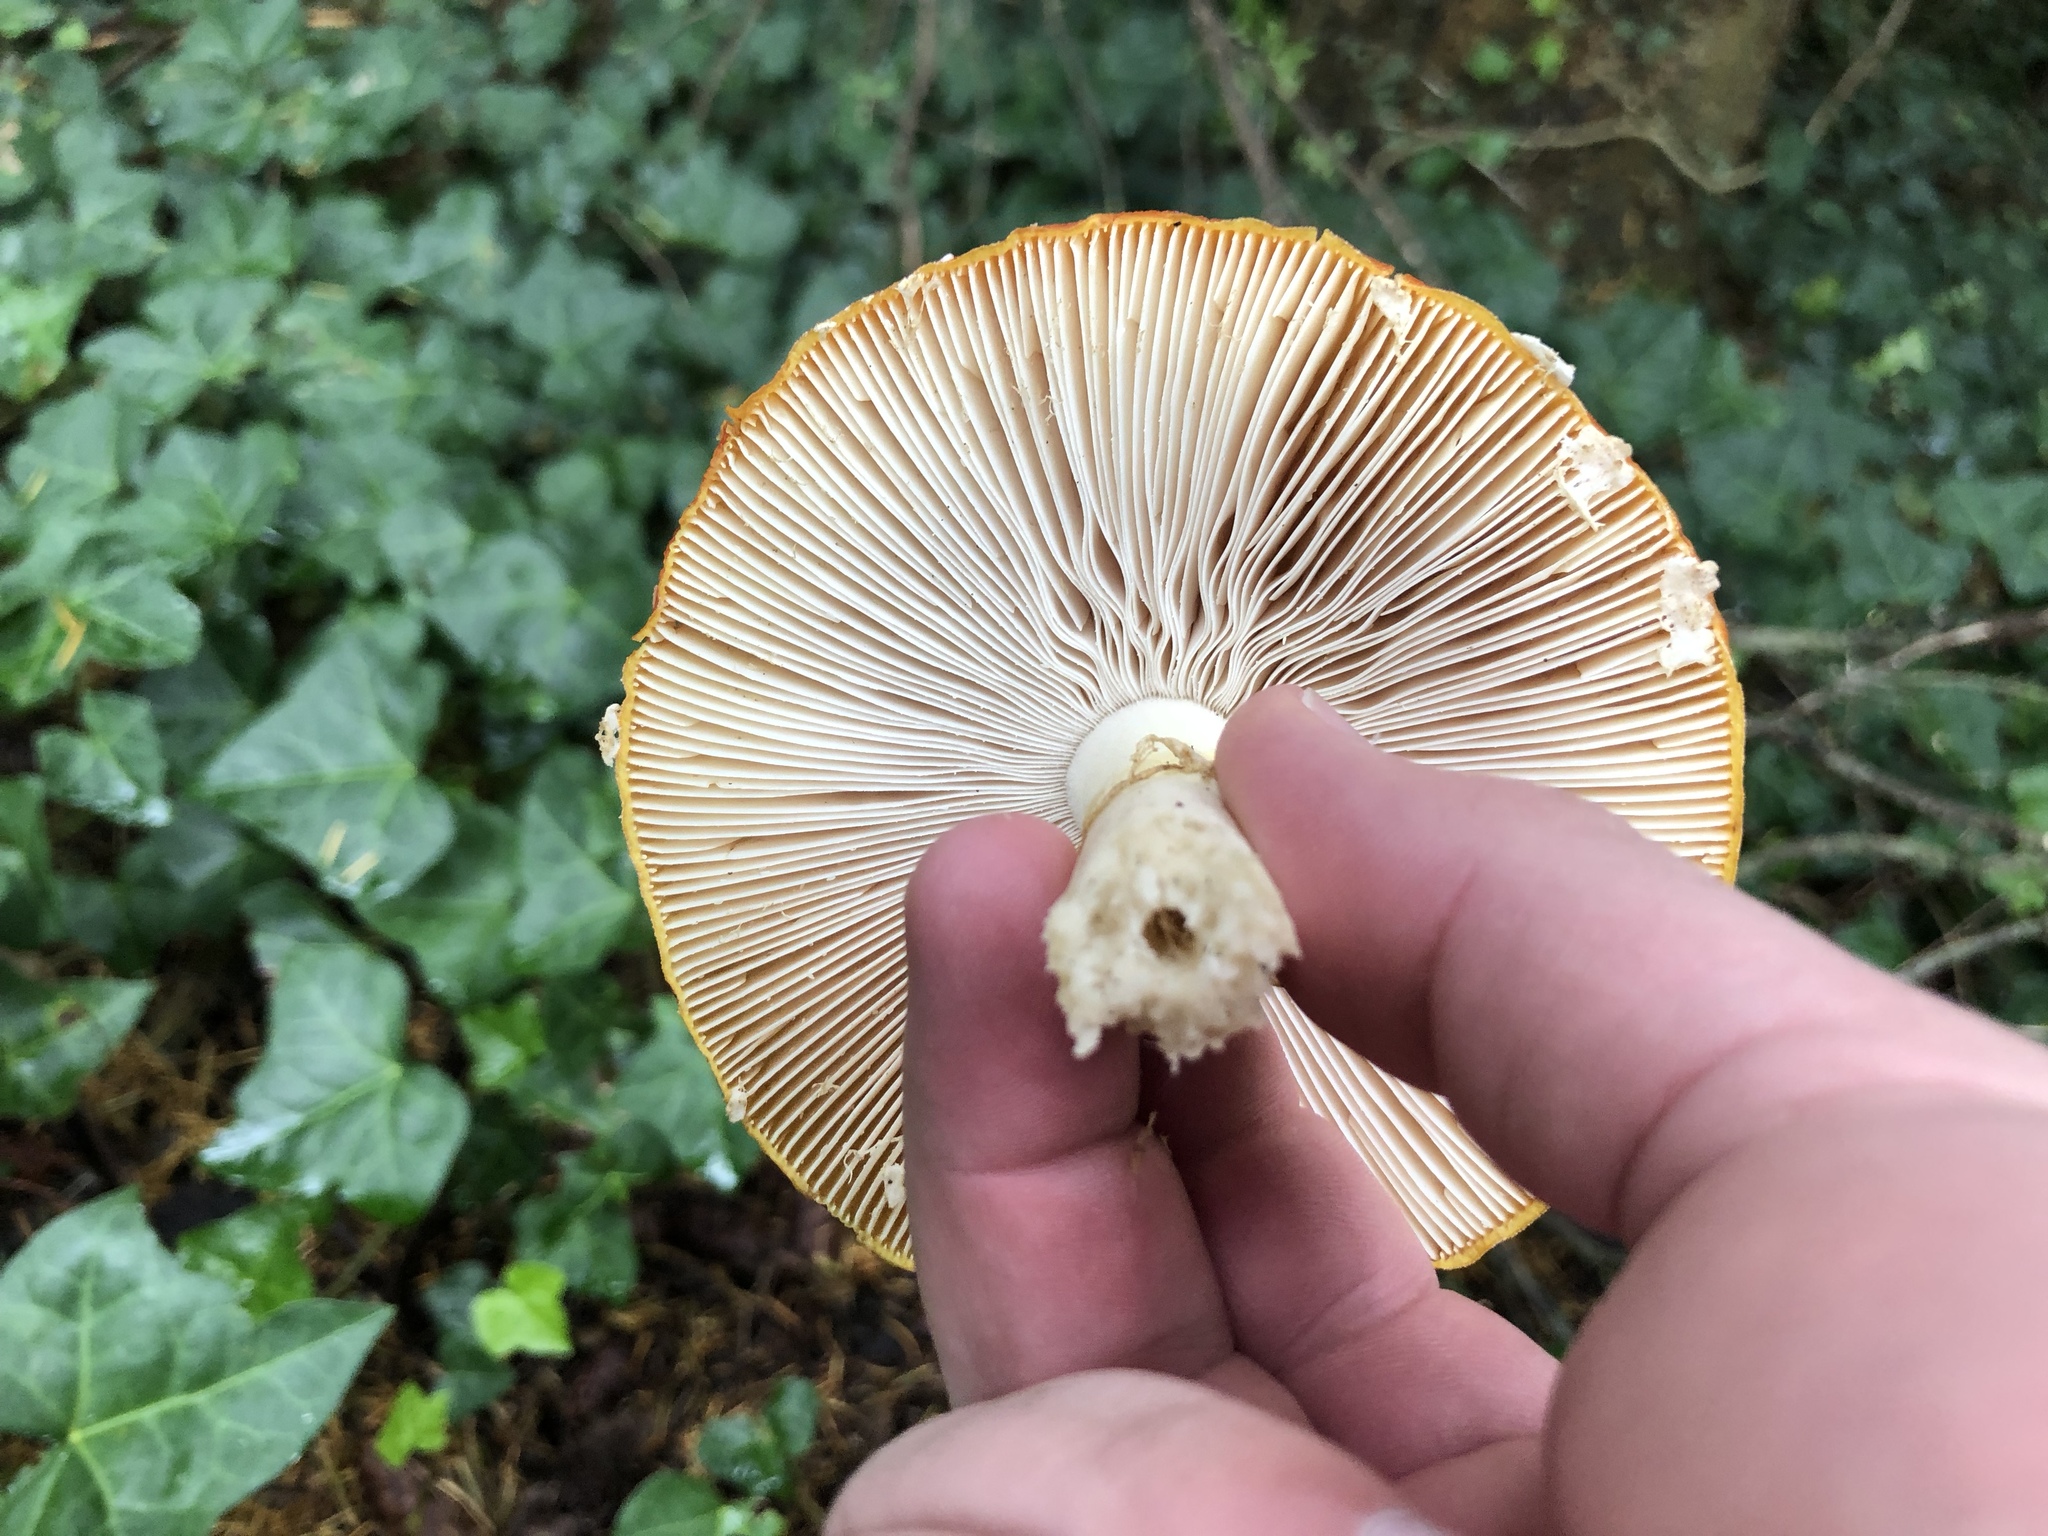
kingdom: Fungi
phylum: Basidiomycota
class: Agaricomycetes
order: Agaricales
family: Amanitaceae
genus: Amanita
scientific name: Amanita muscaria
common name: Fly agaric
